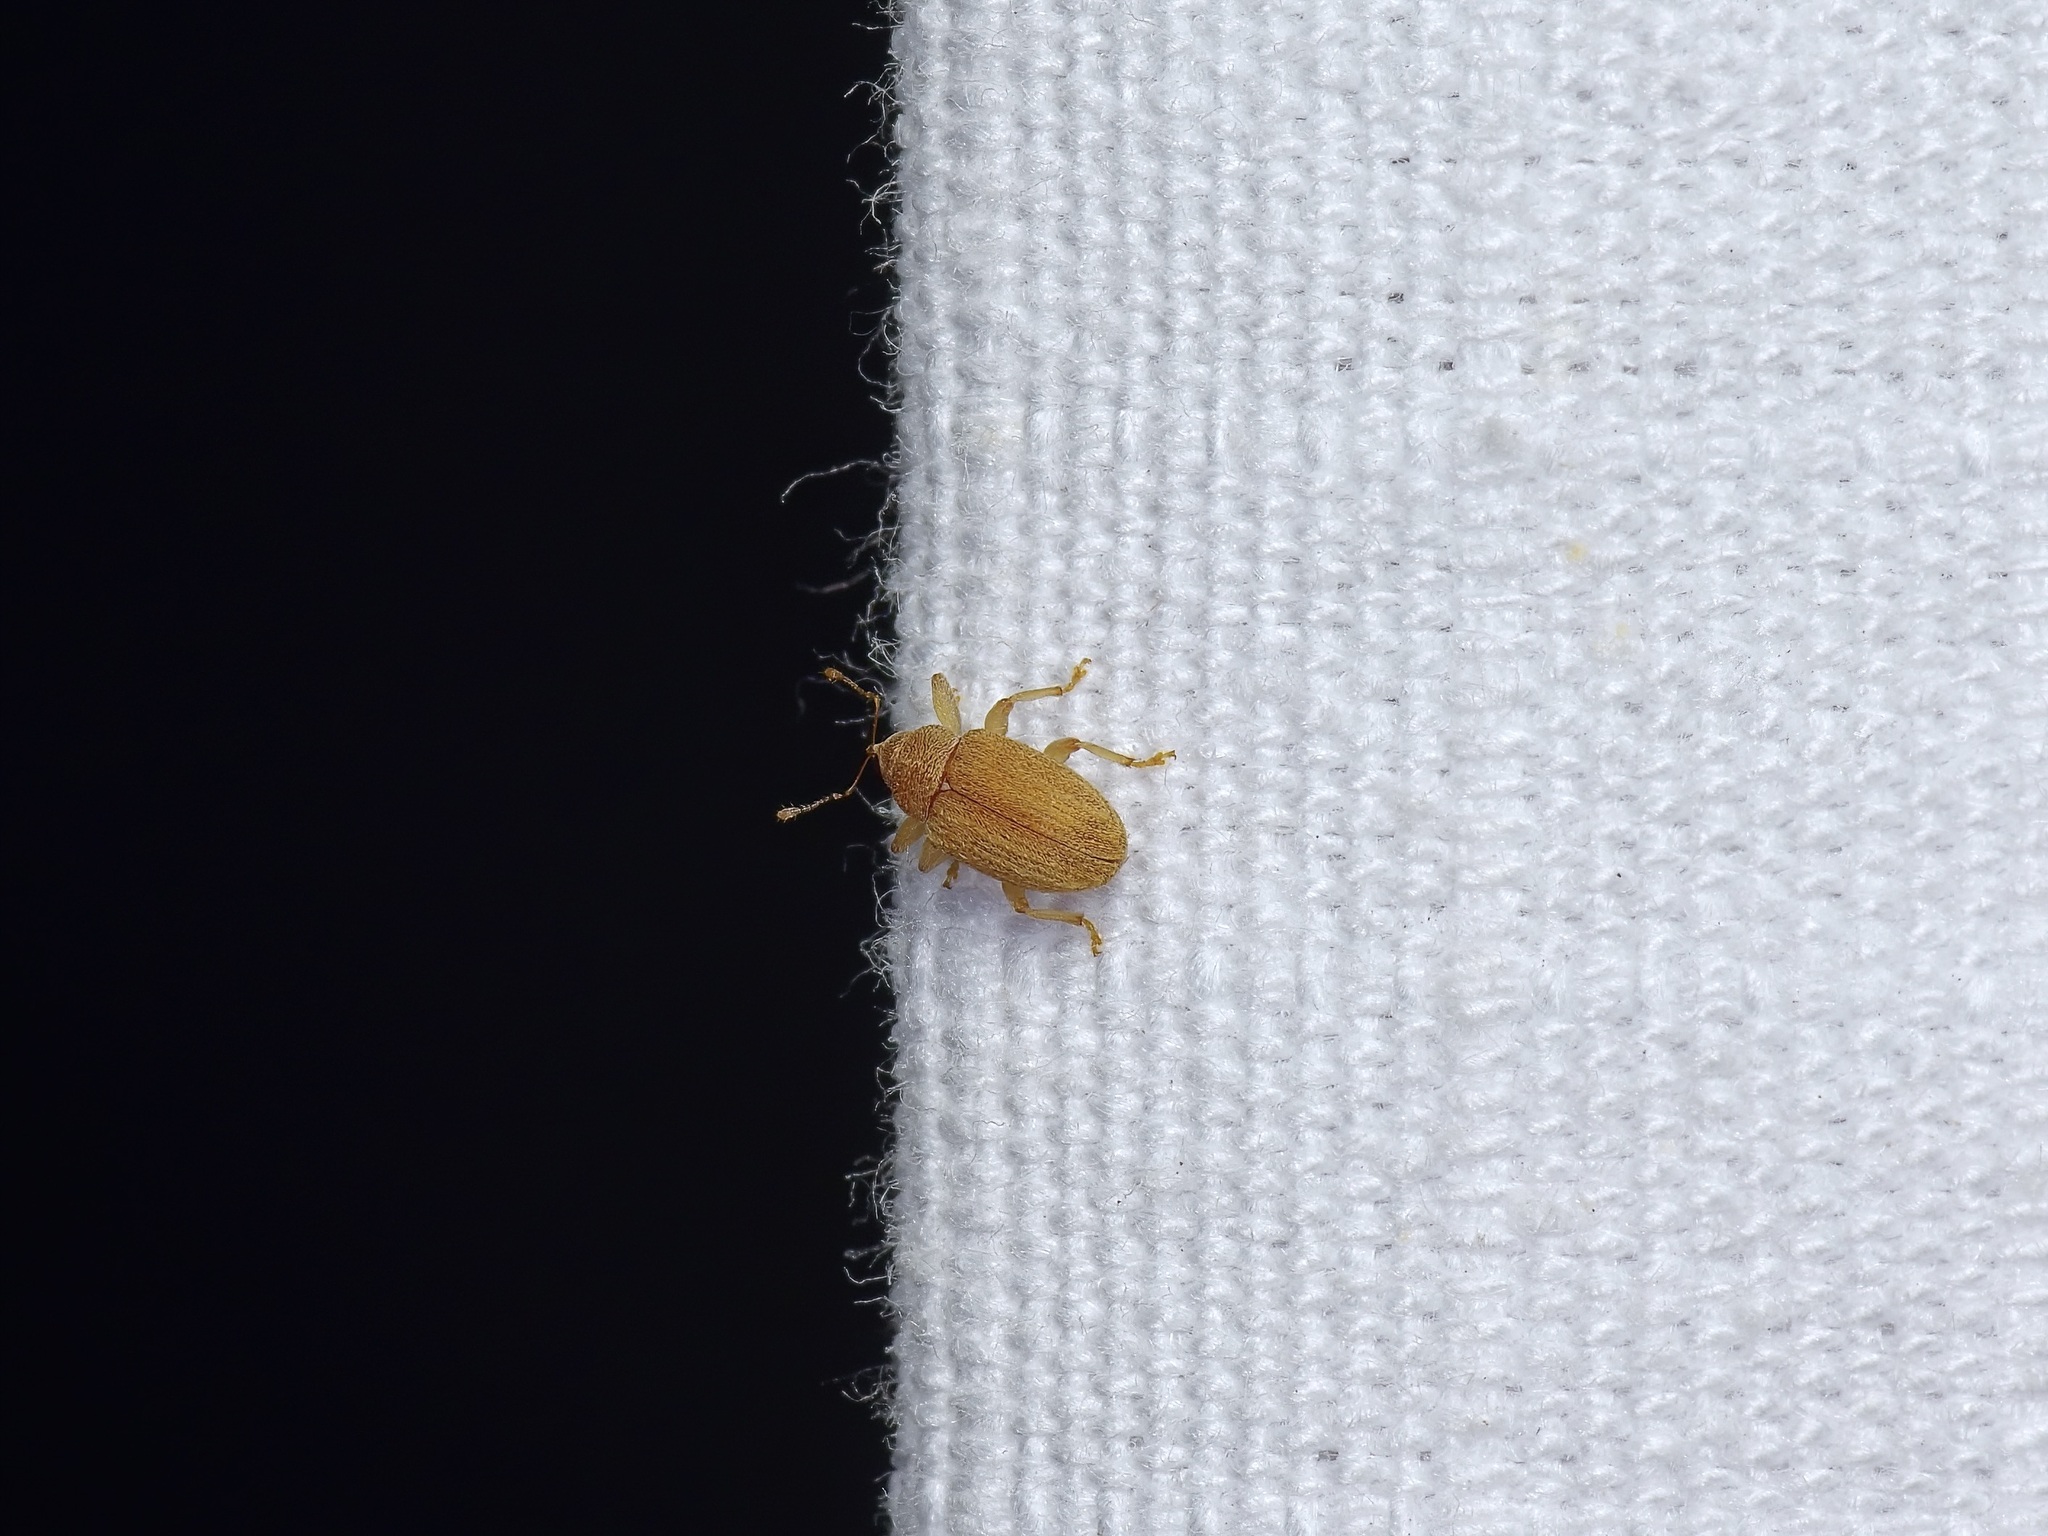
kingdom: Animalia
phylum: Arthropoda
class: Insecta
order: Coleoptera
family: Curculionidae
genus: Lignyodes
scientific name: Lignyodes helvolus
